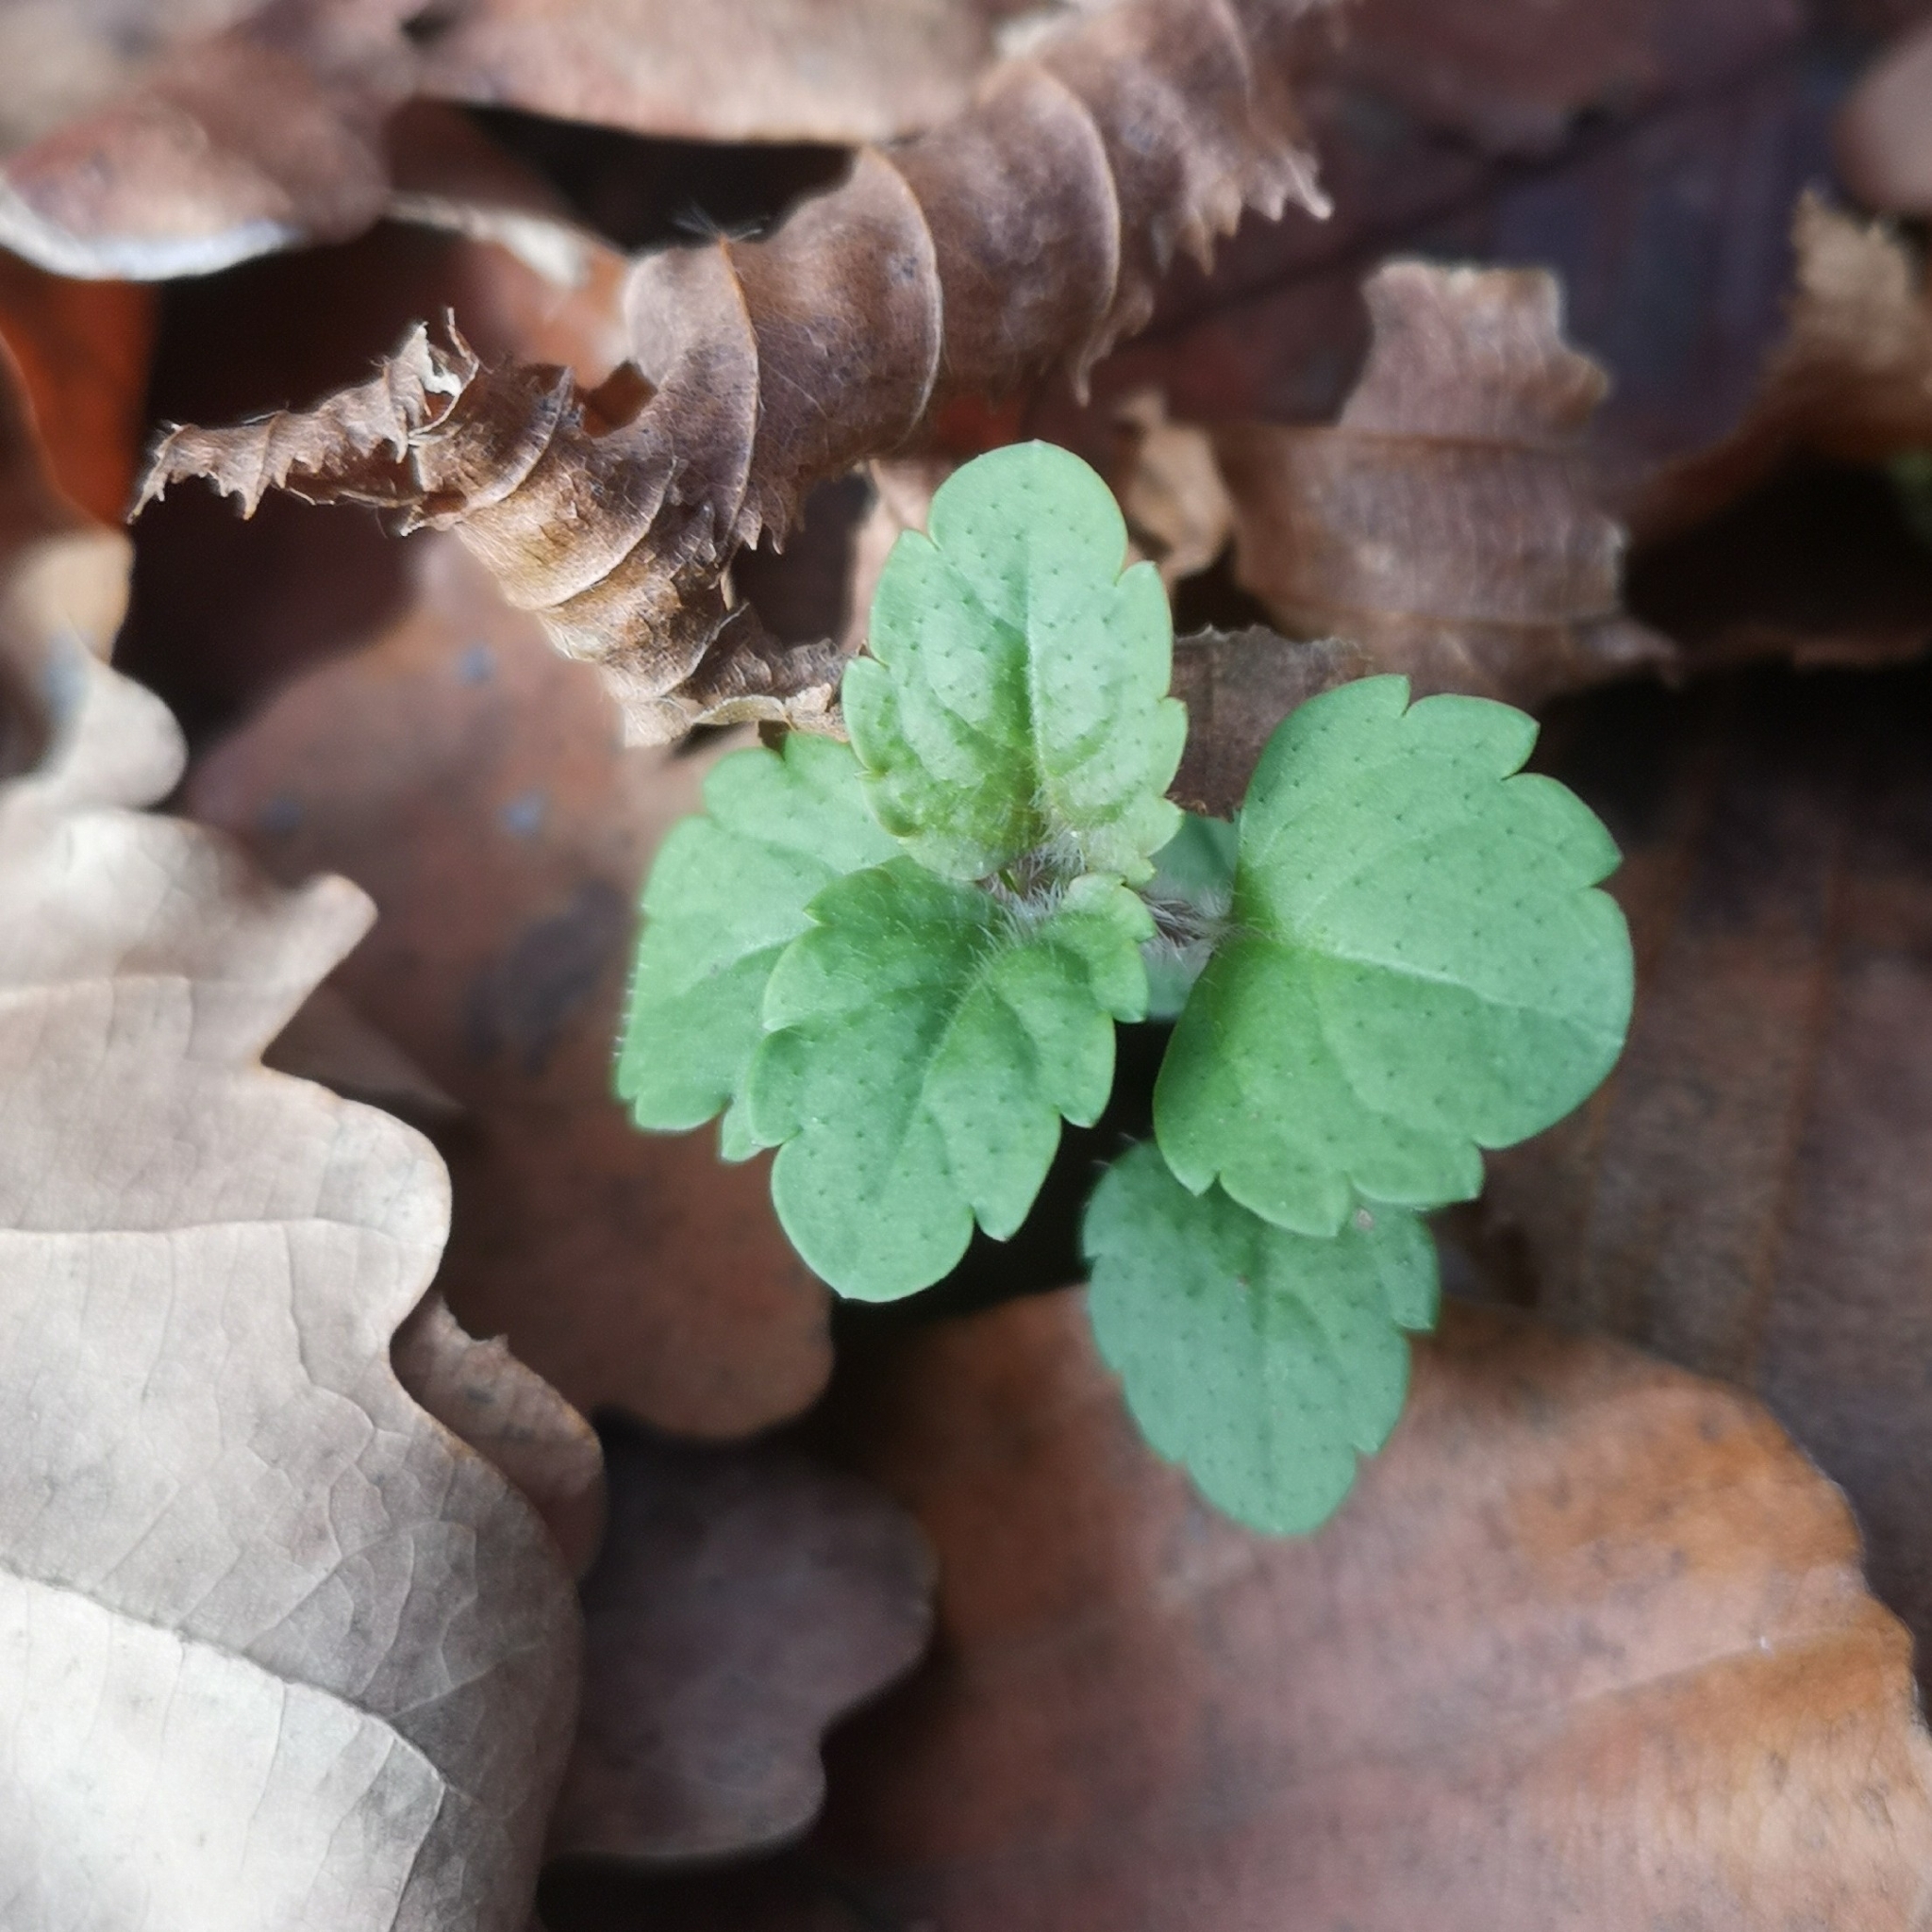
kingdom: Plantae
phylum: Tracheophyta
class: Magnoliopsida
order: Lamiales
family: Plantaginaceae
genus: Veronica
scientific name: Veronica persica
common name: Common field-speedwell
